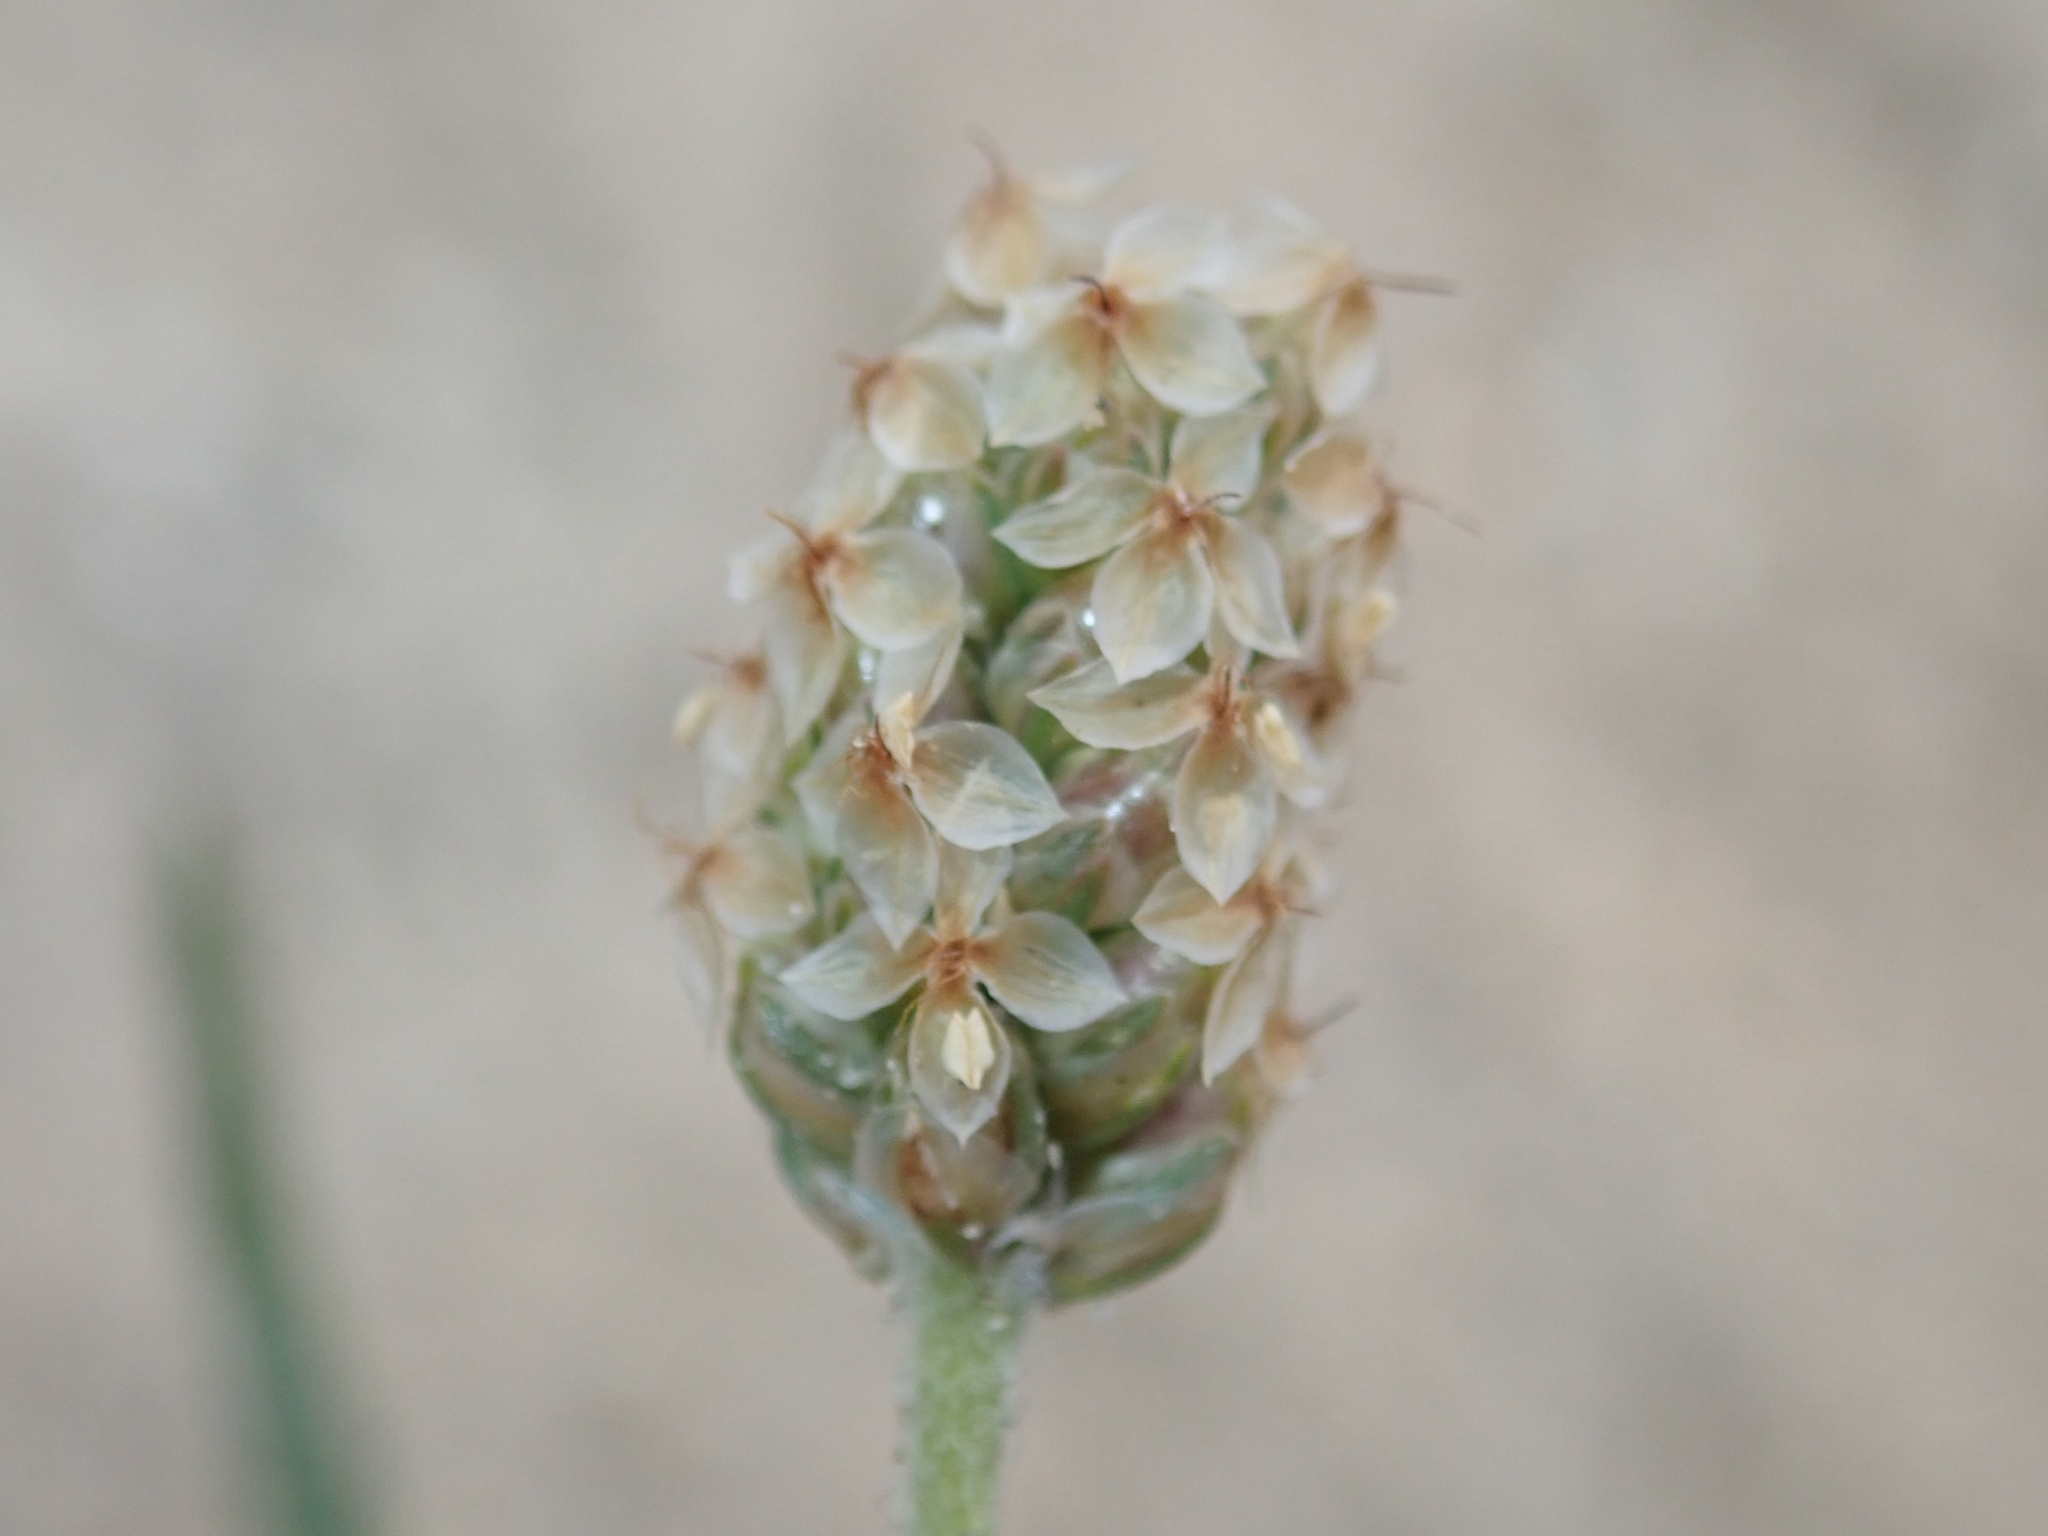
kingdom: Plantae
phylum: Tracheophyta
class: Magnoliopsida
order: Lamiales
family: Plantaginaceae
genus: Plantago
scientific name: Plantago ovata
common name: Blond plantain
